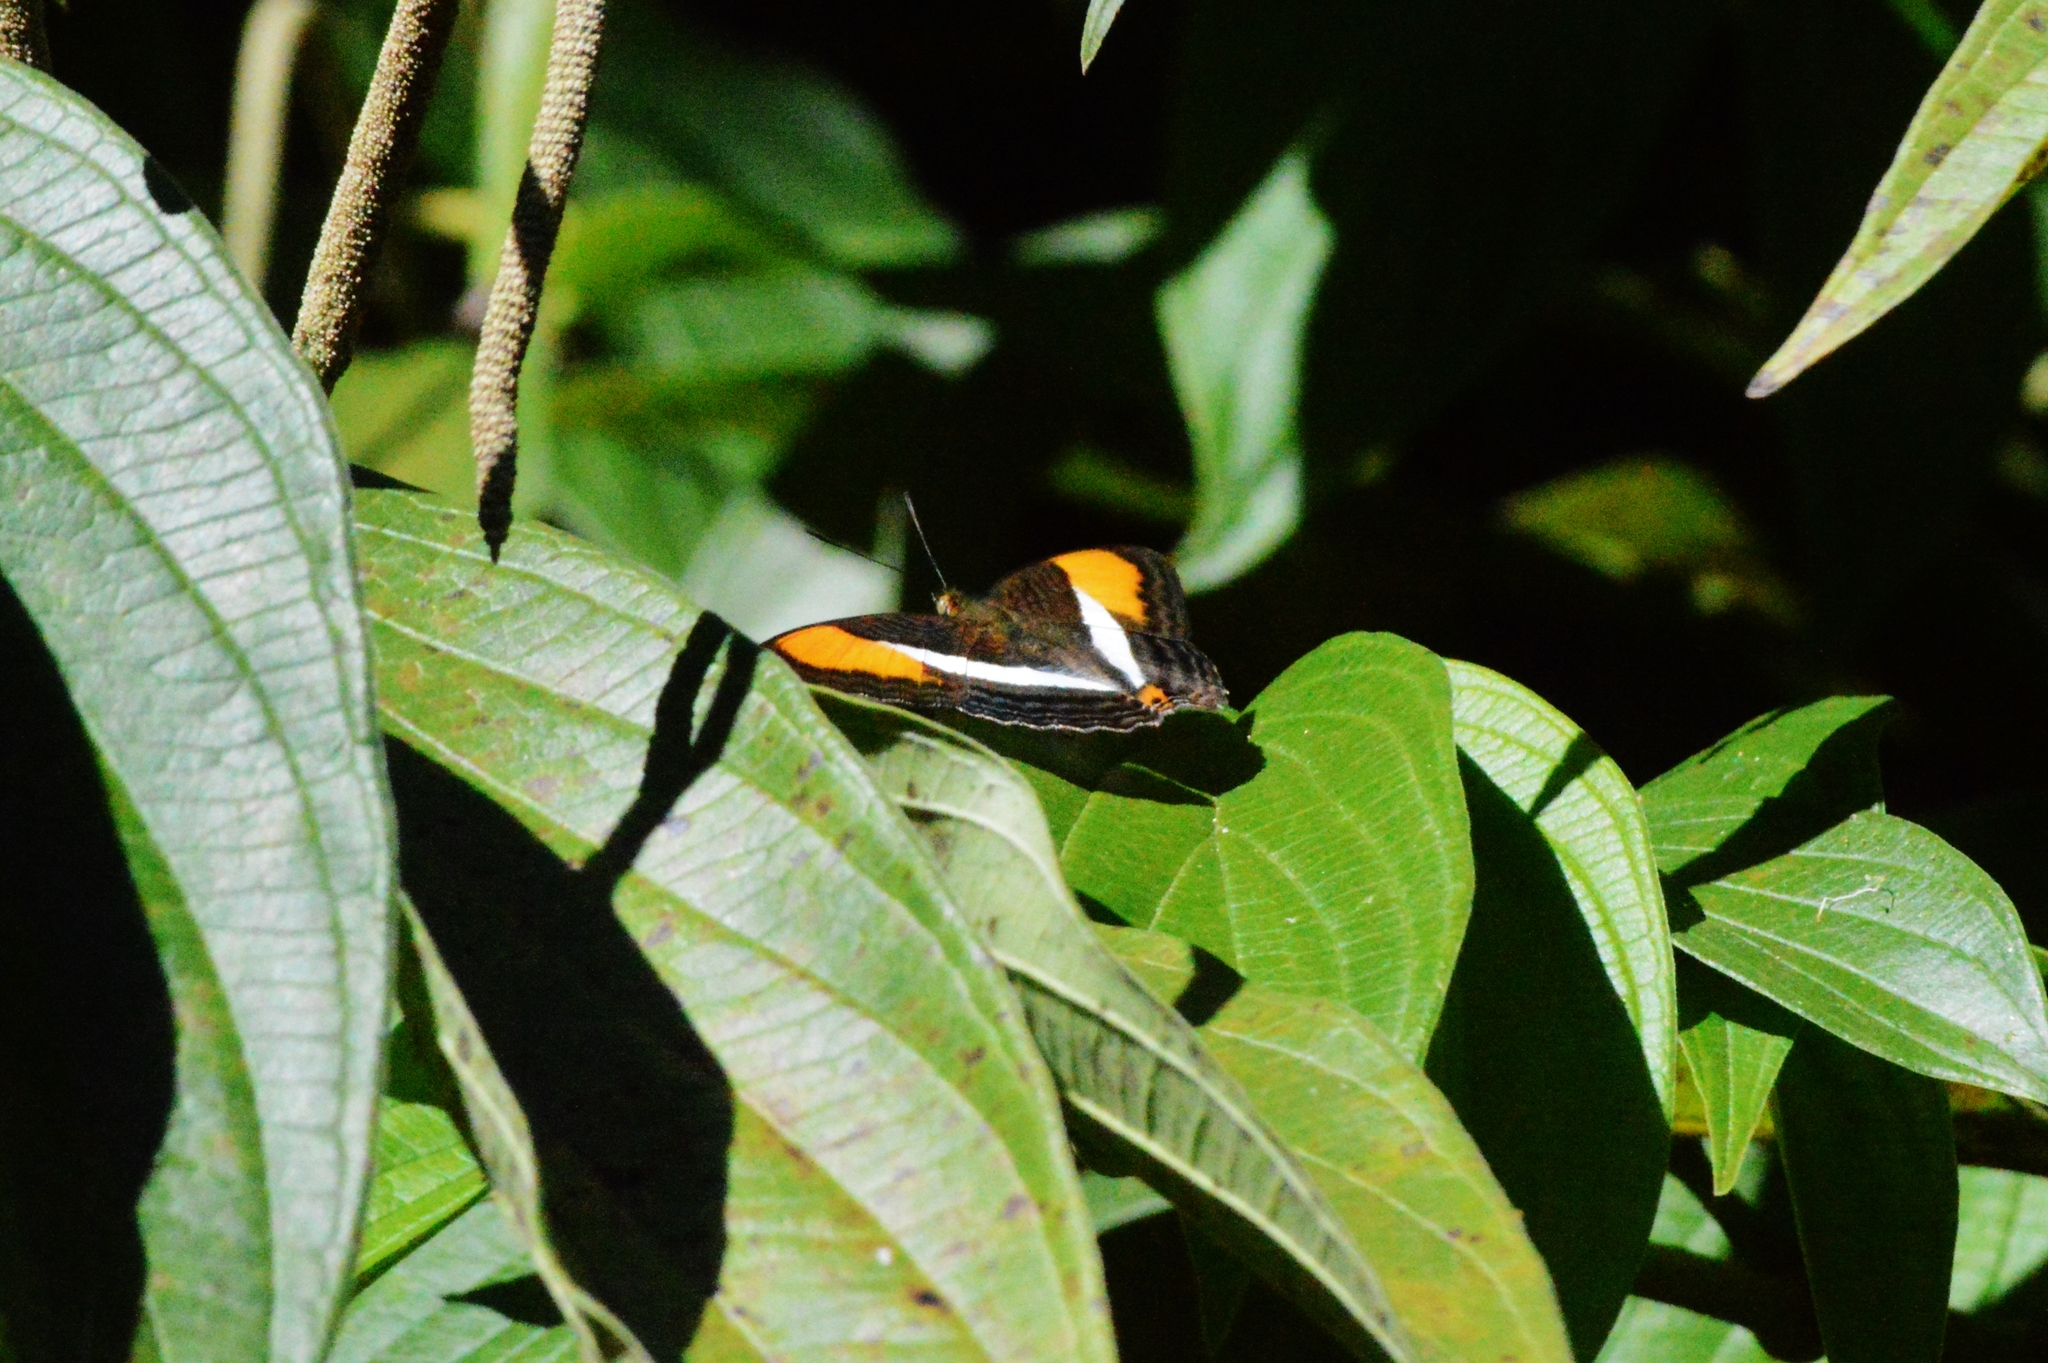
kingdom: Animalia
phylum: Arthropoda
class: Insecta
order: Lepidoptera
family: Nymphalidae
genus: Limenitis
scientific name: Limenitis cytherea
